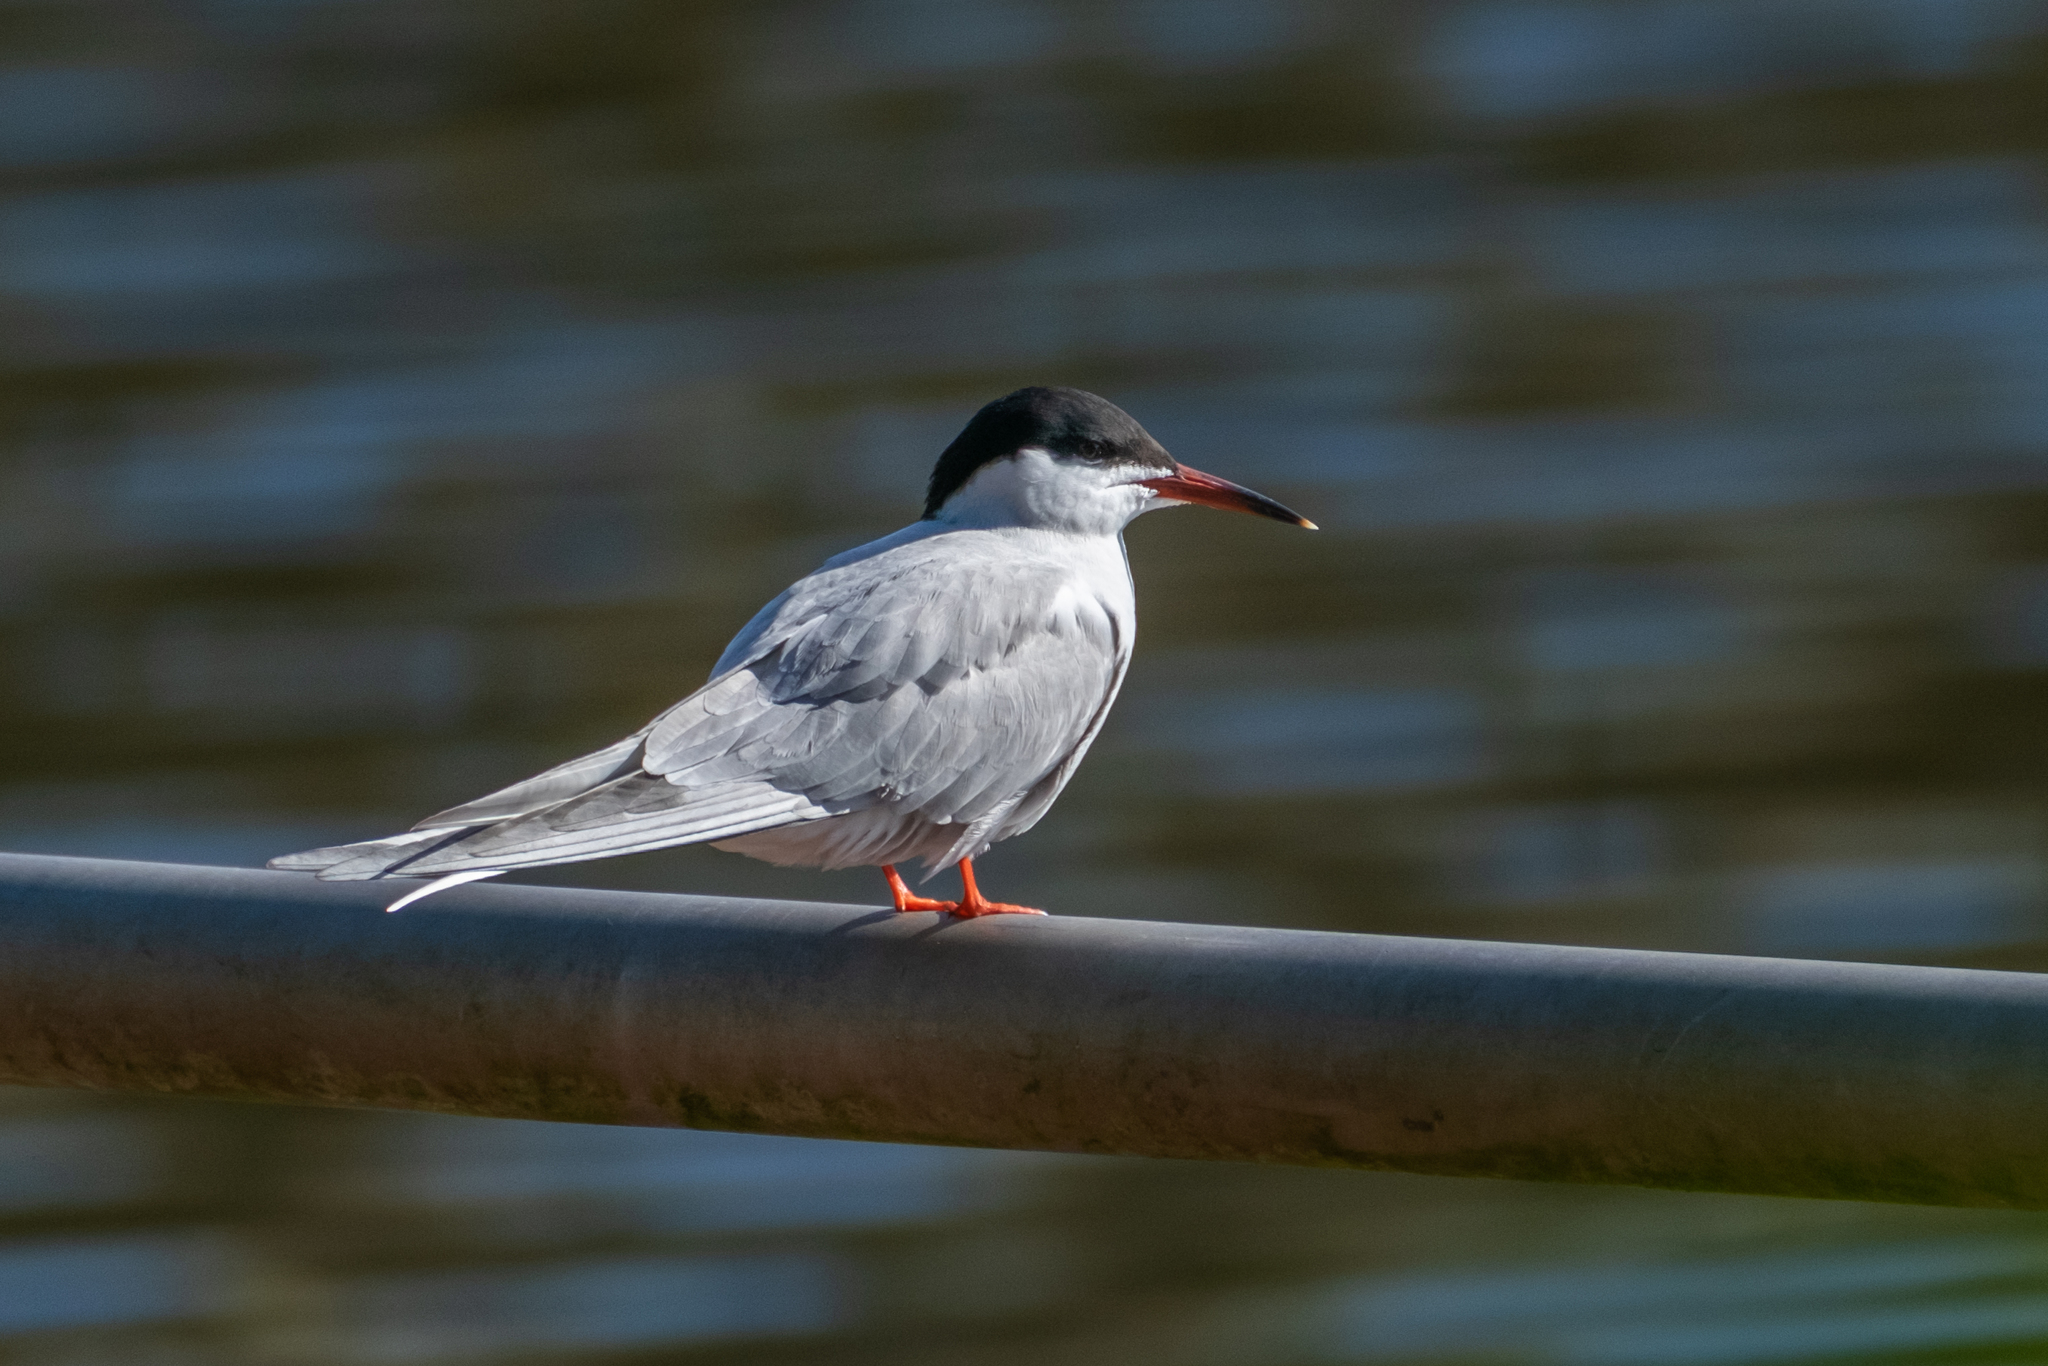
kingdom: Animalia
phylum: Chordata
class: Aves
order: Charadriiformes
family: Laridae
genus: Sterna
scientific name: Sterna hirundo
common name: Common tern
